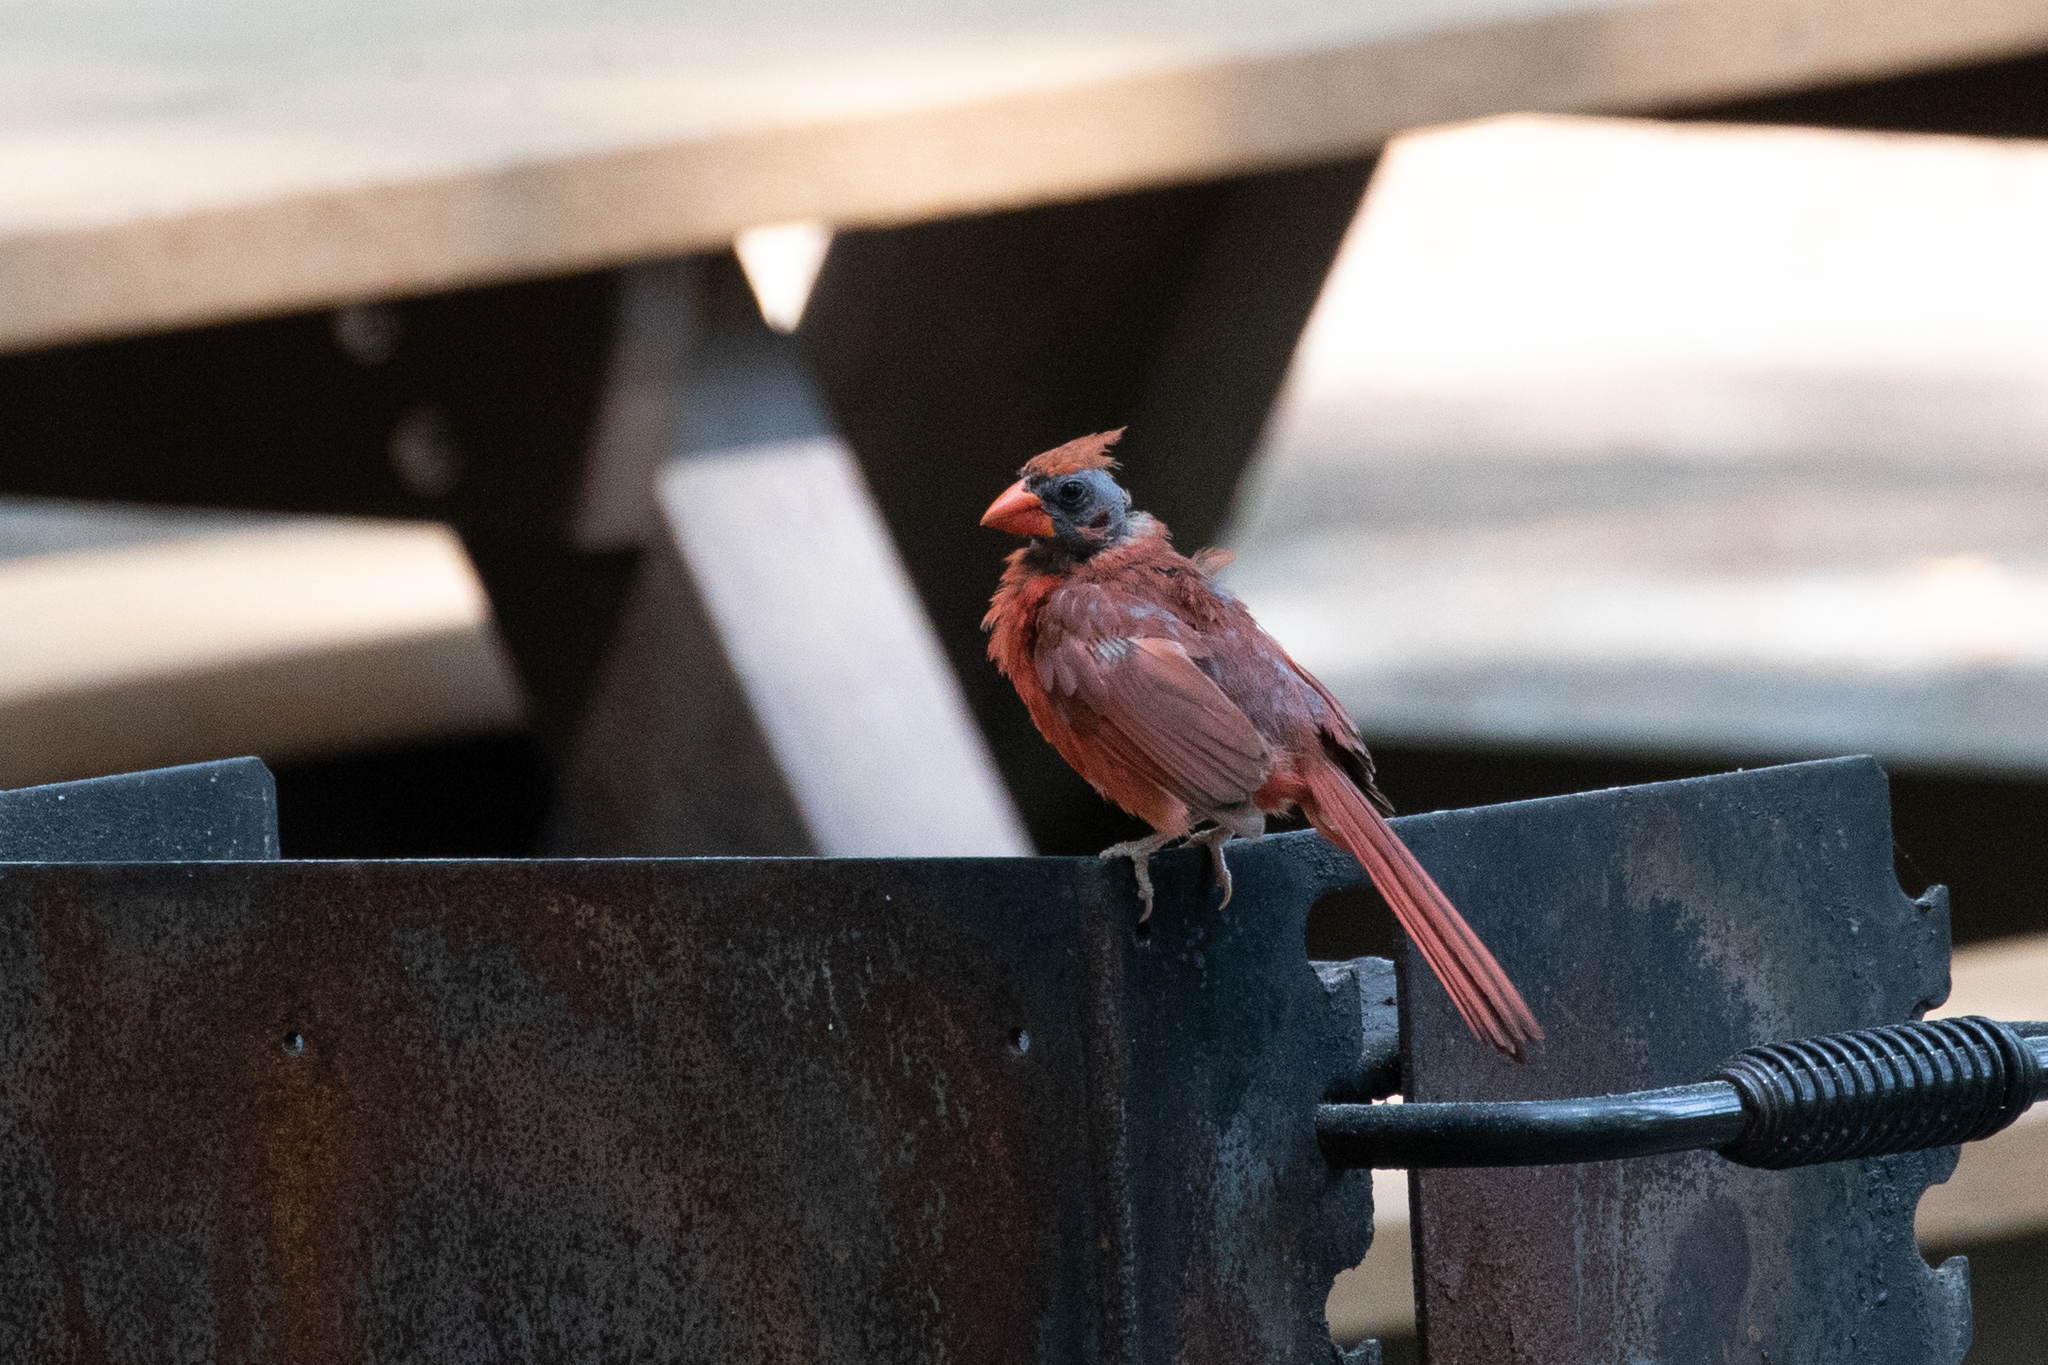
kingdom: Animalia
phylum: Chordata
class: Aves
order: Passeriformes
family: Cardinalidae
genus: Cardinalis
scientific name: Cardinalis cardinalis
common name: Northern cardinal
